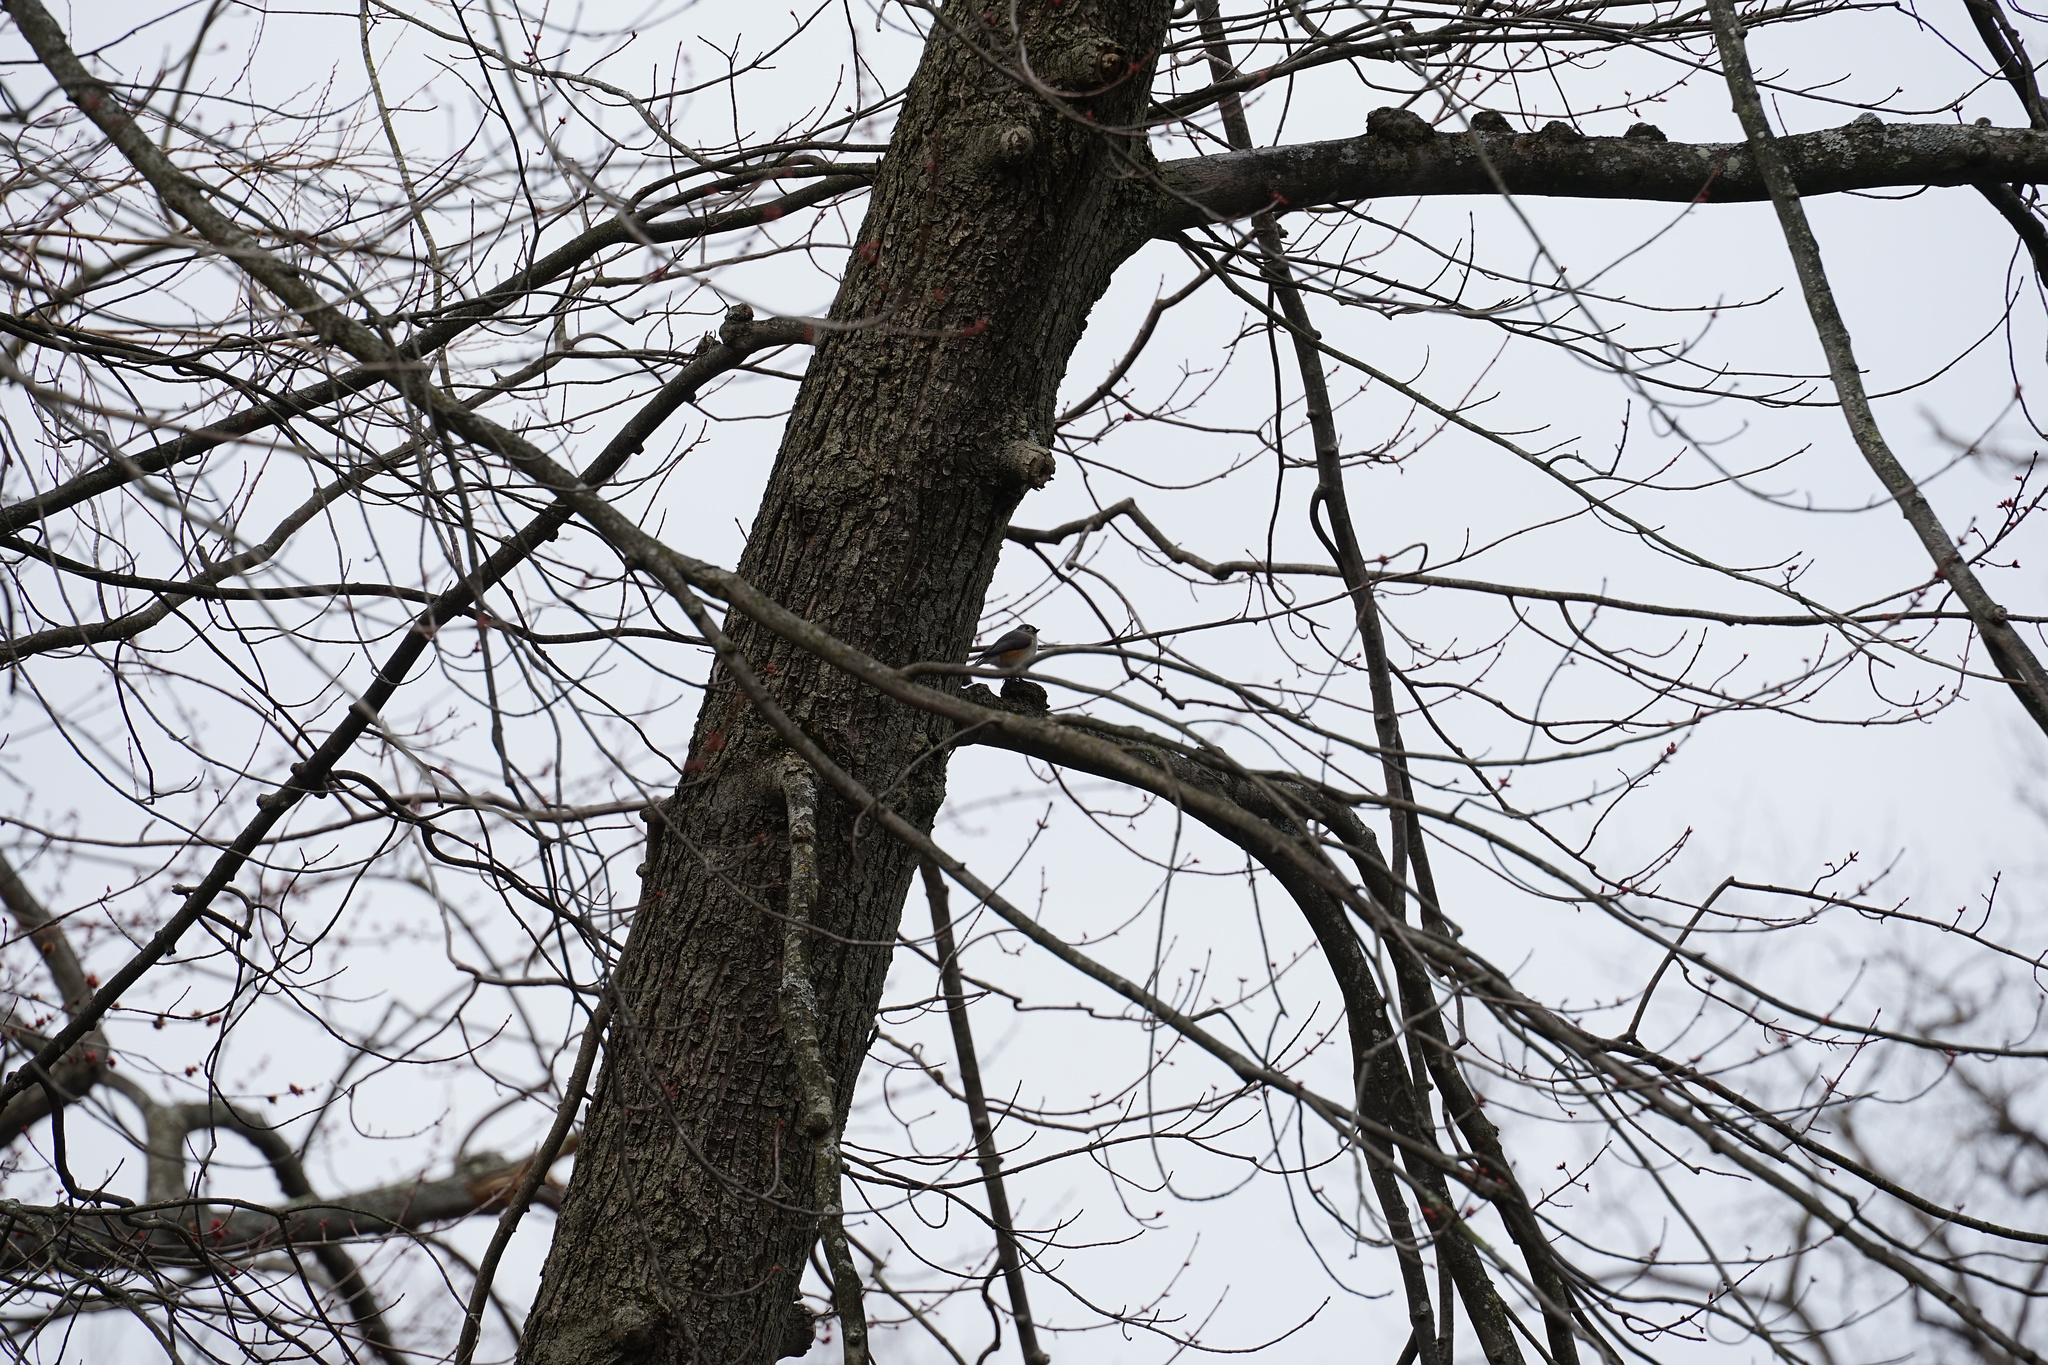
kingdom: Animalia
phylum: Chordata
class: Aves
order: Passeriformes
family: Paridae
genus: Baeolophus
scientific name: Baeolophus bicolor
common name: Tufted titmouse
